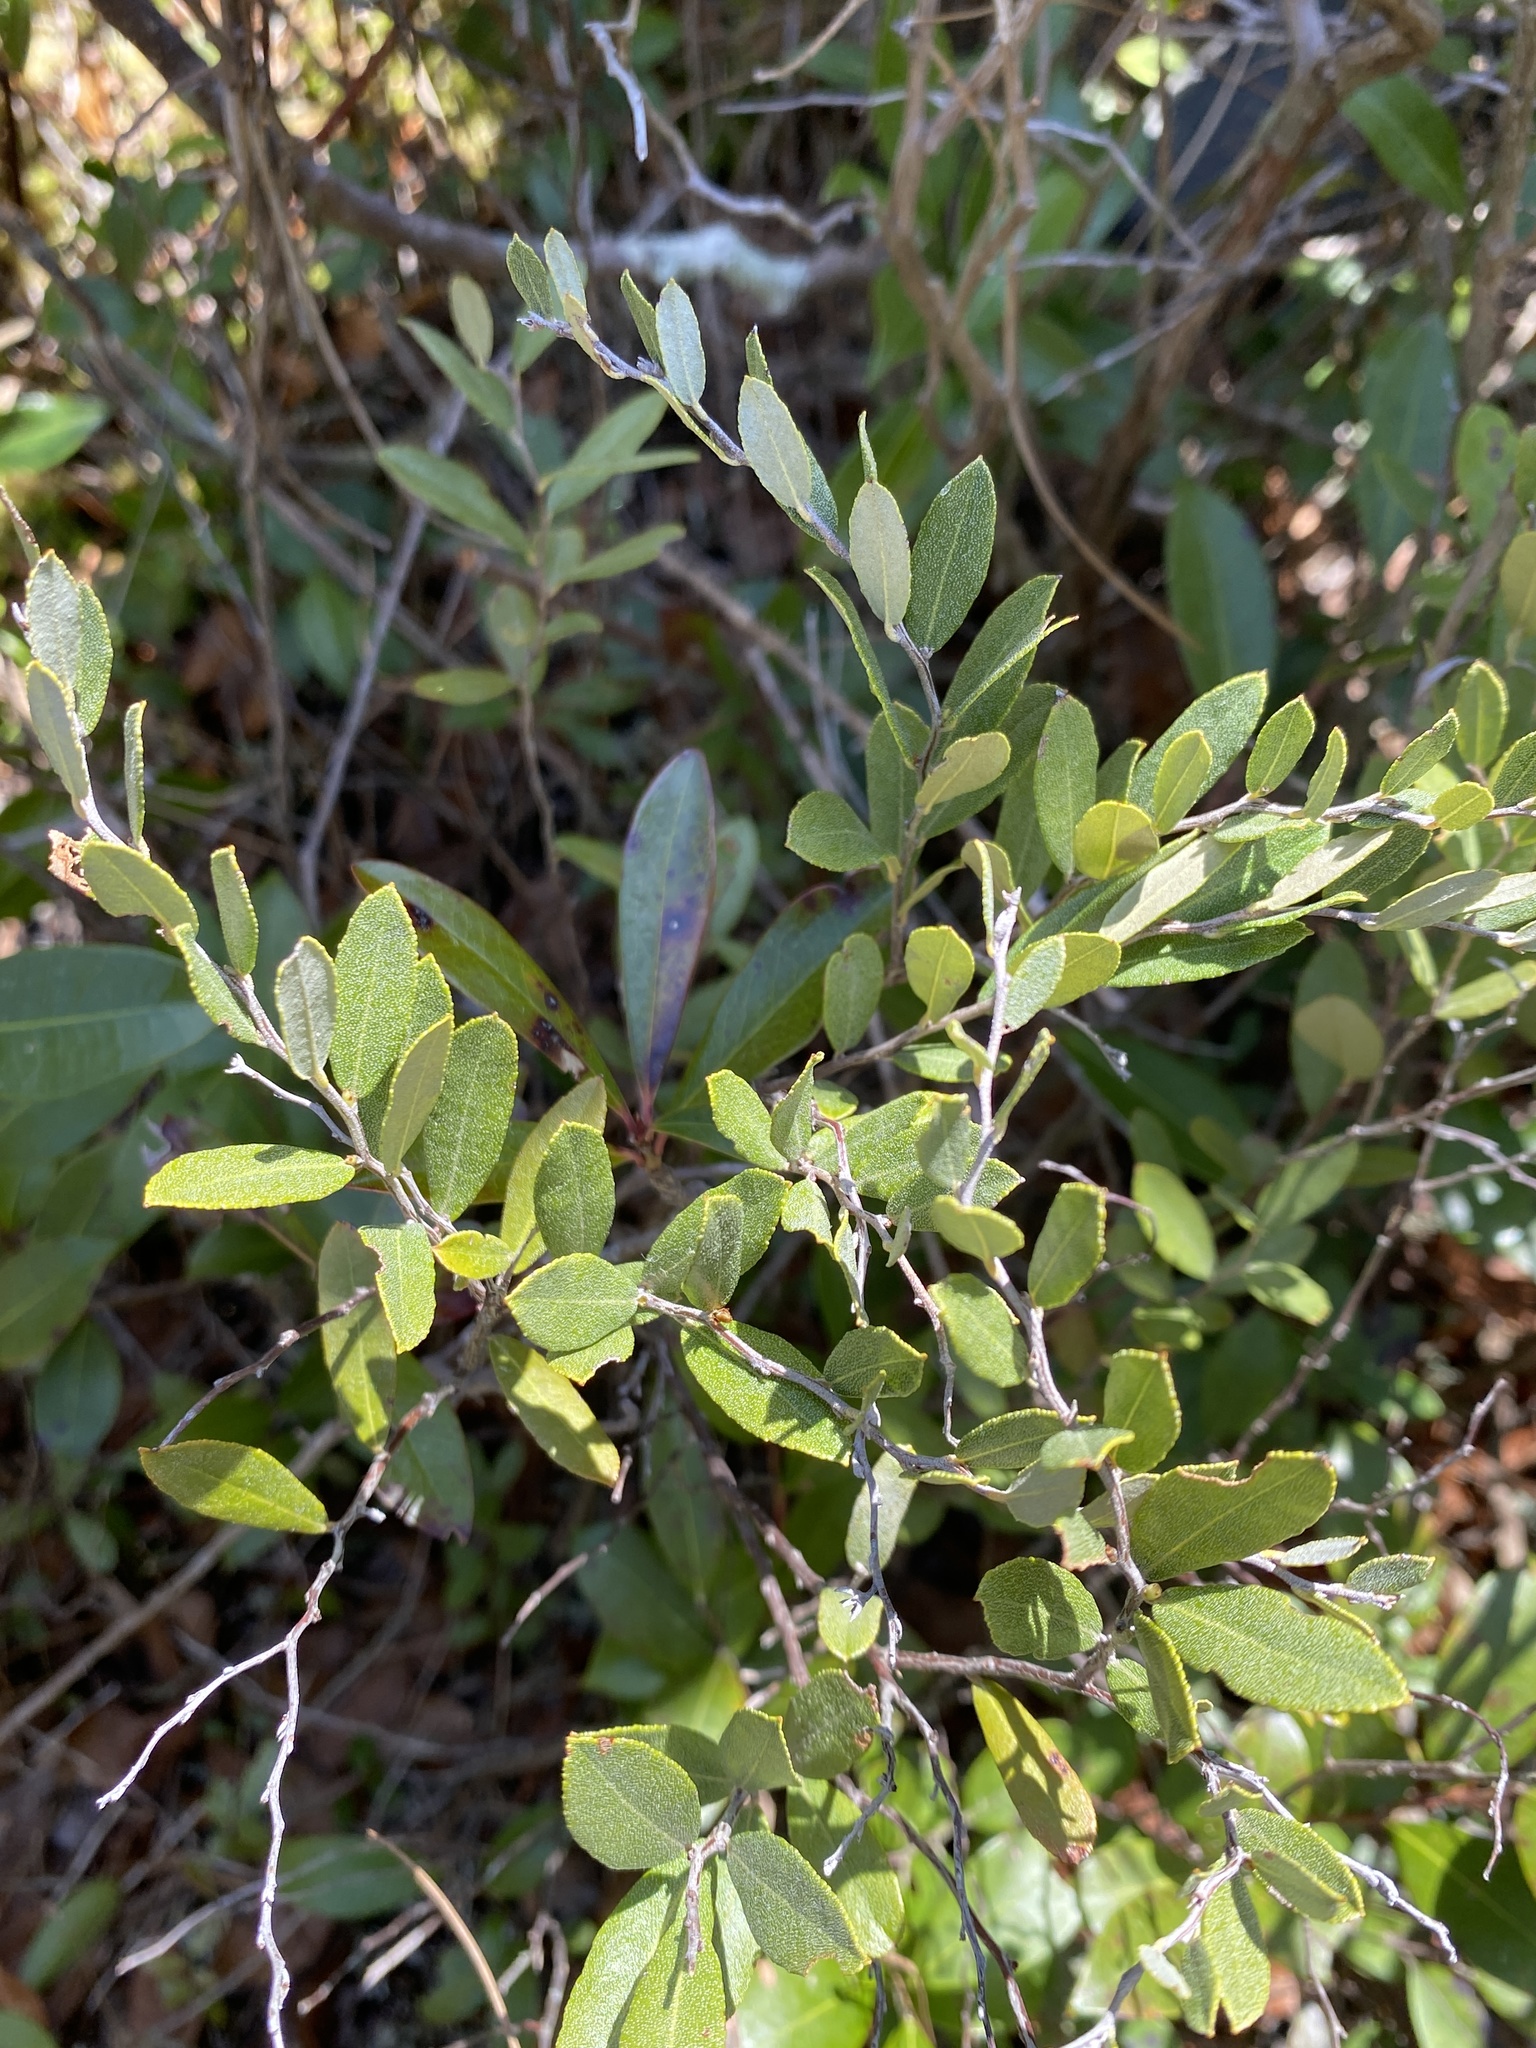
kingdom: Plantae
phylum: Tracheophyta
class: Magnoliopsida
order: Ericales
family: Ericaceae
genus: Chamaedaphne
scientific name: Chamaedaphne calyculata
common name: Leatherleaf
